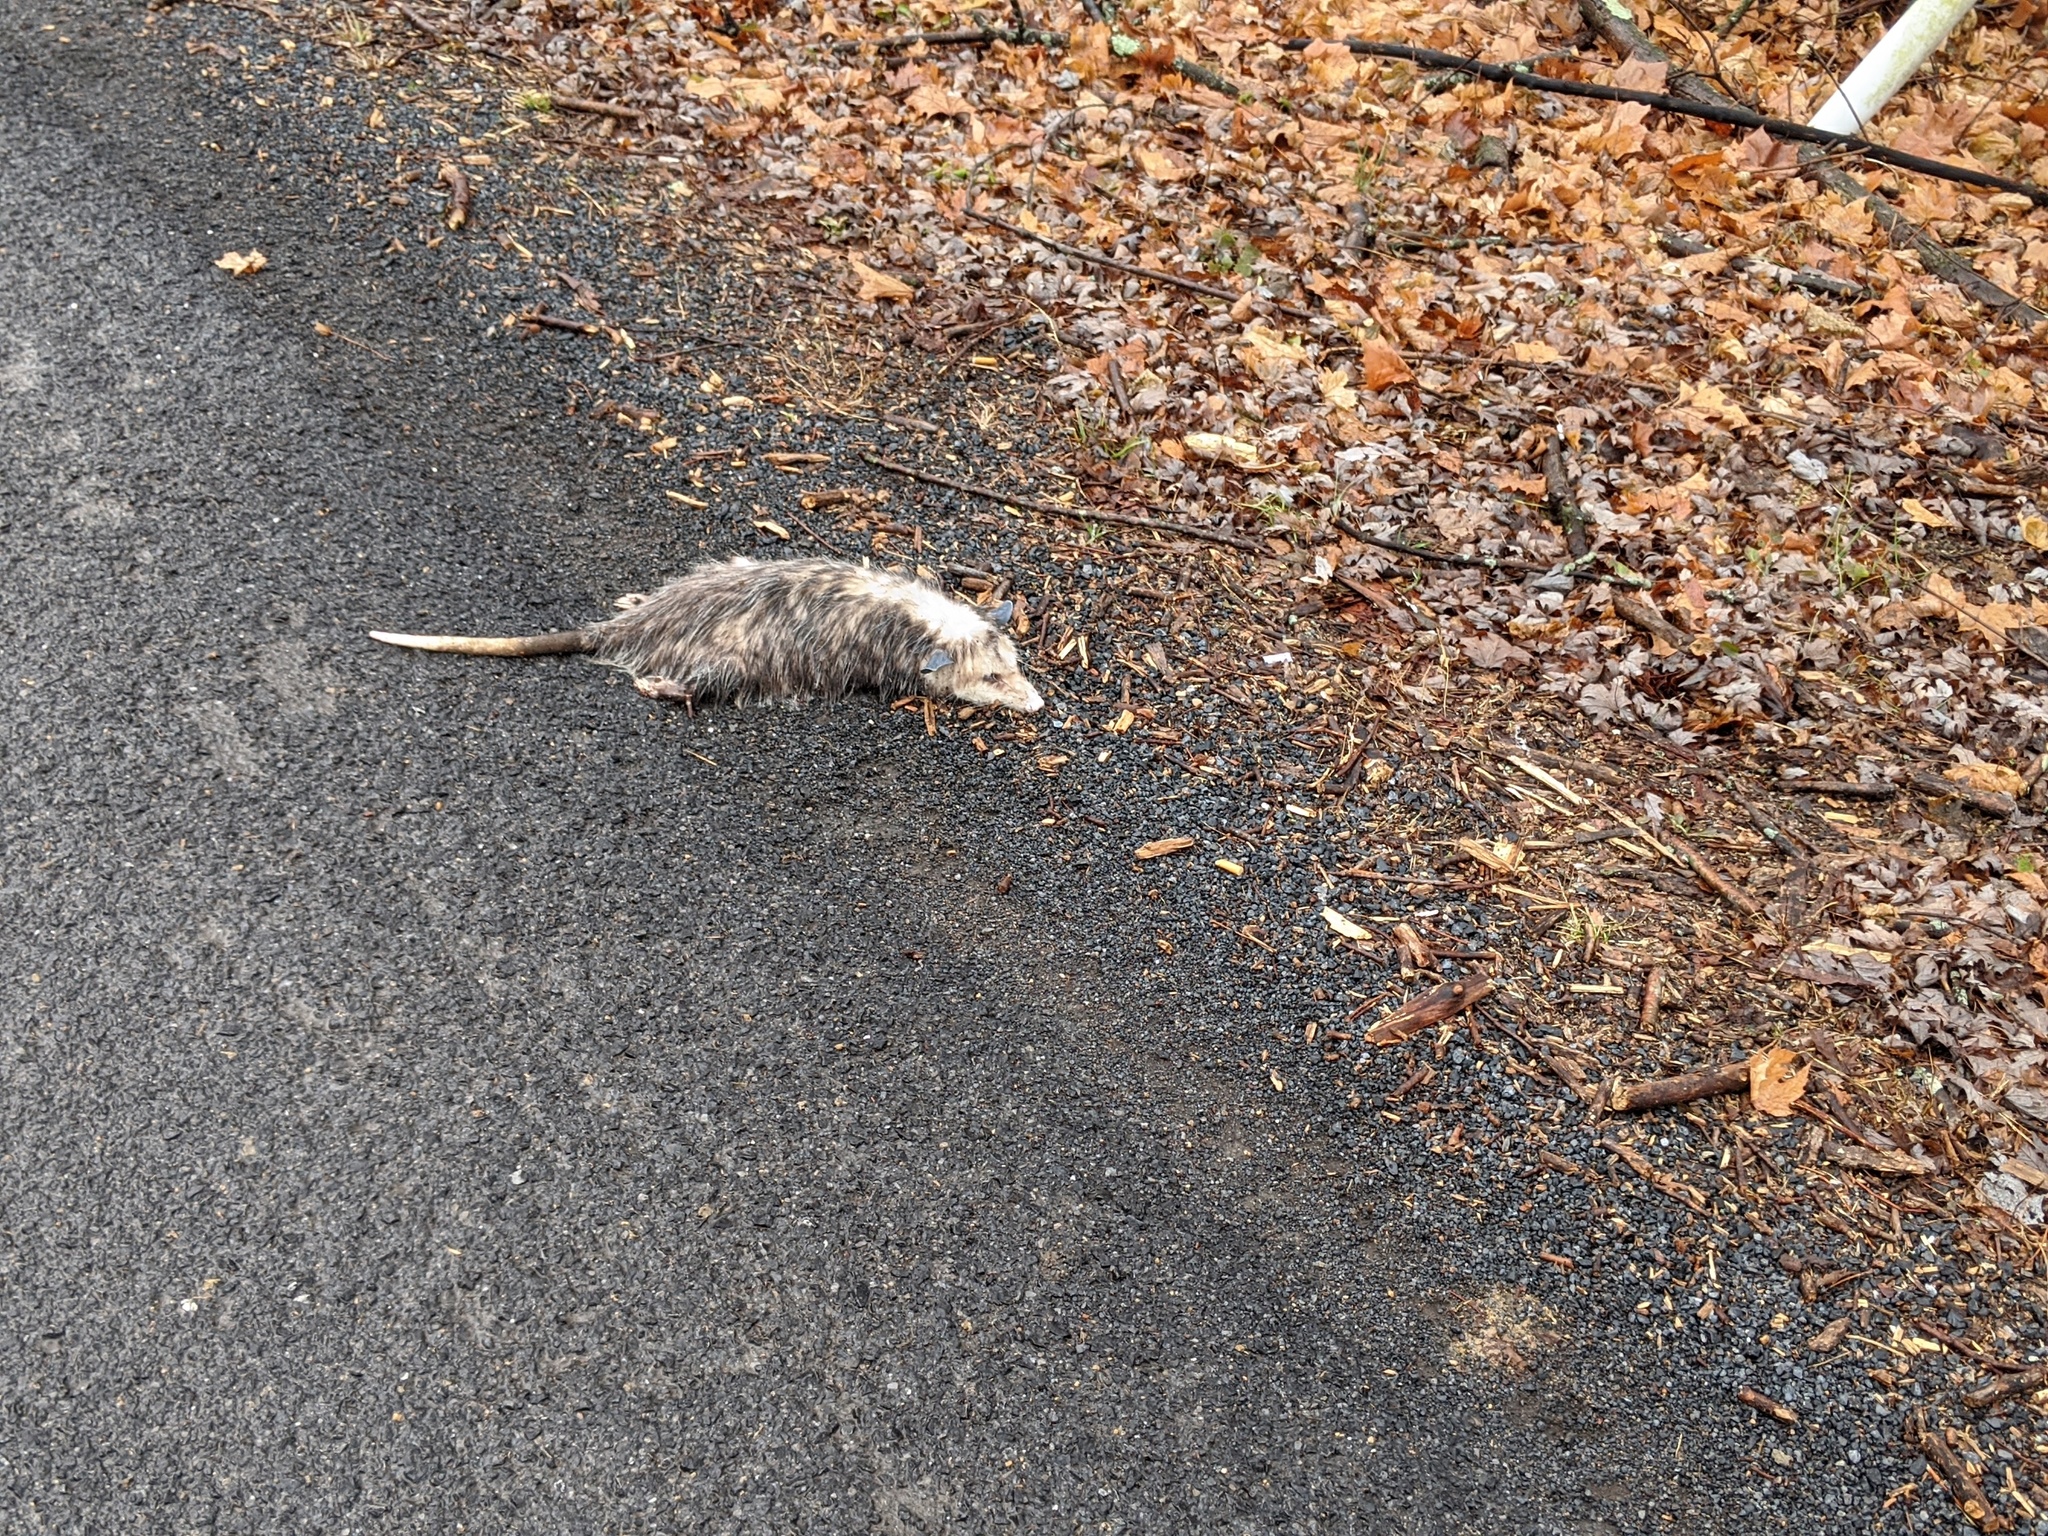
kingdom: Animalia
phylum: Chordata
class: Mammalia
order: Didelphimorphia
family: Didelphidae
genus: Didelphis
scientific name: Didelphis virginiana
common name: Virginia opossum
